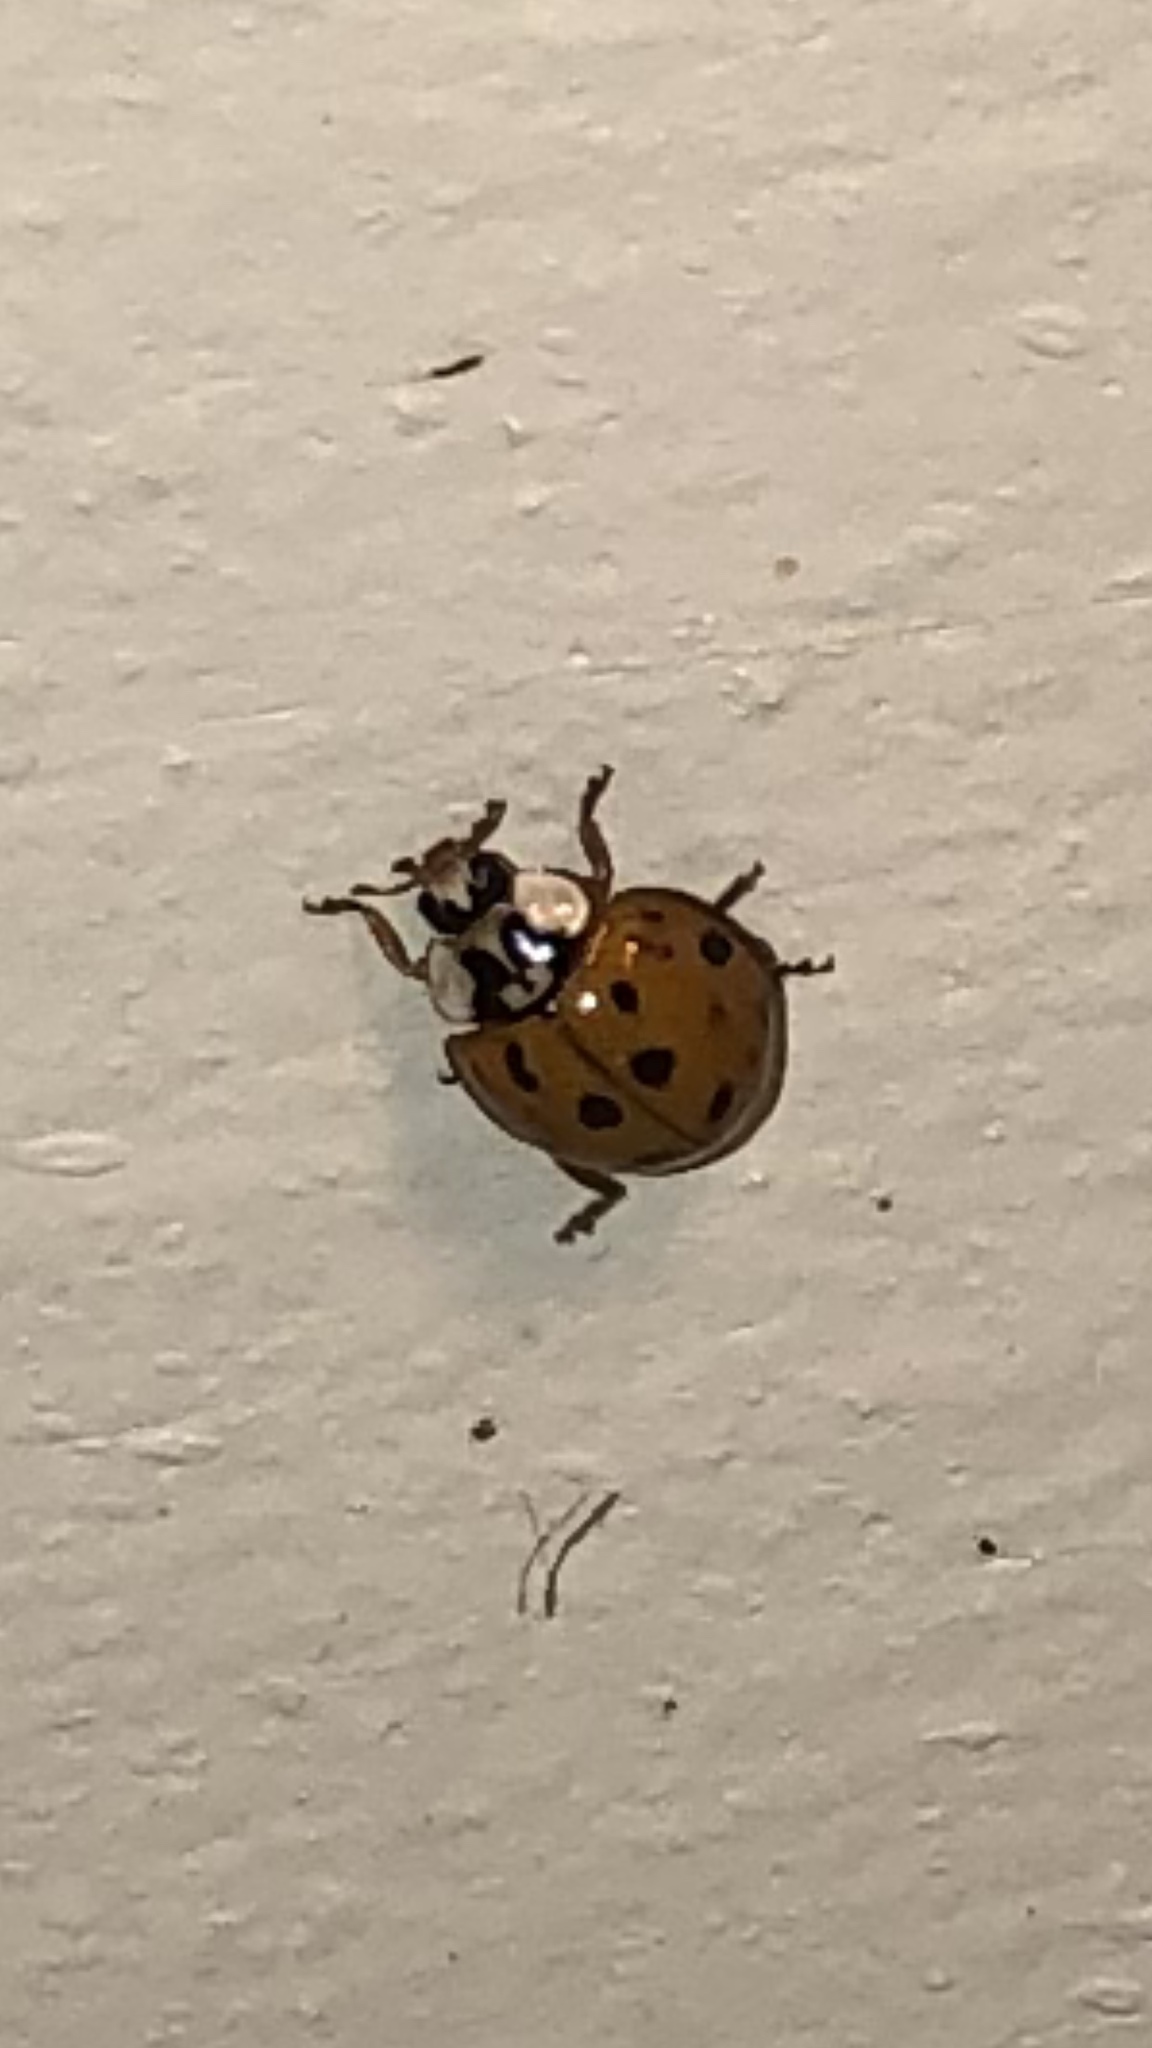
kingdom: Animalia
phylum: Arthropoda
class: Insecta
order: Coleoptera
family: Coccinellidae
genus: Harmonia
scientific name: Harmonia axyridis
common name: Harlequin ladybird
